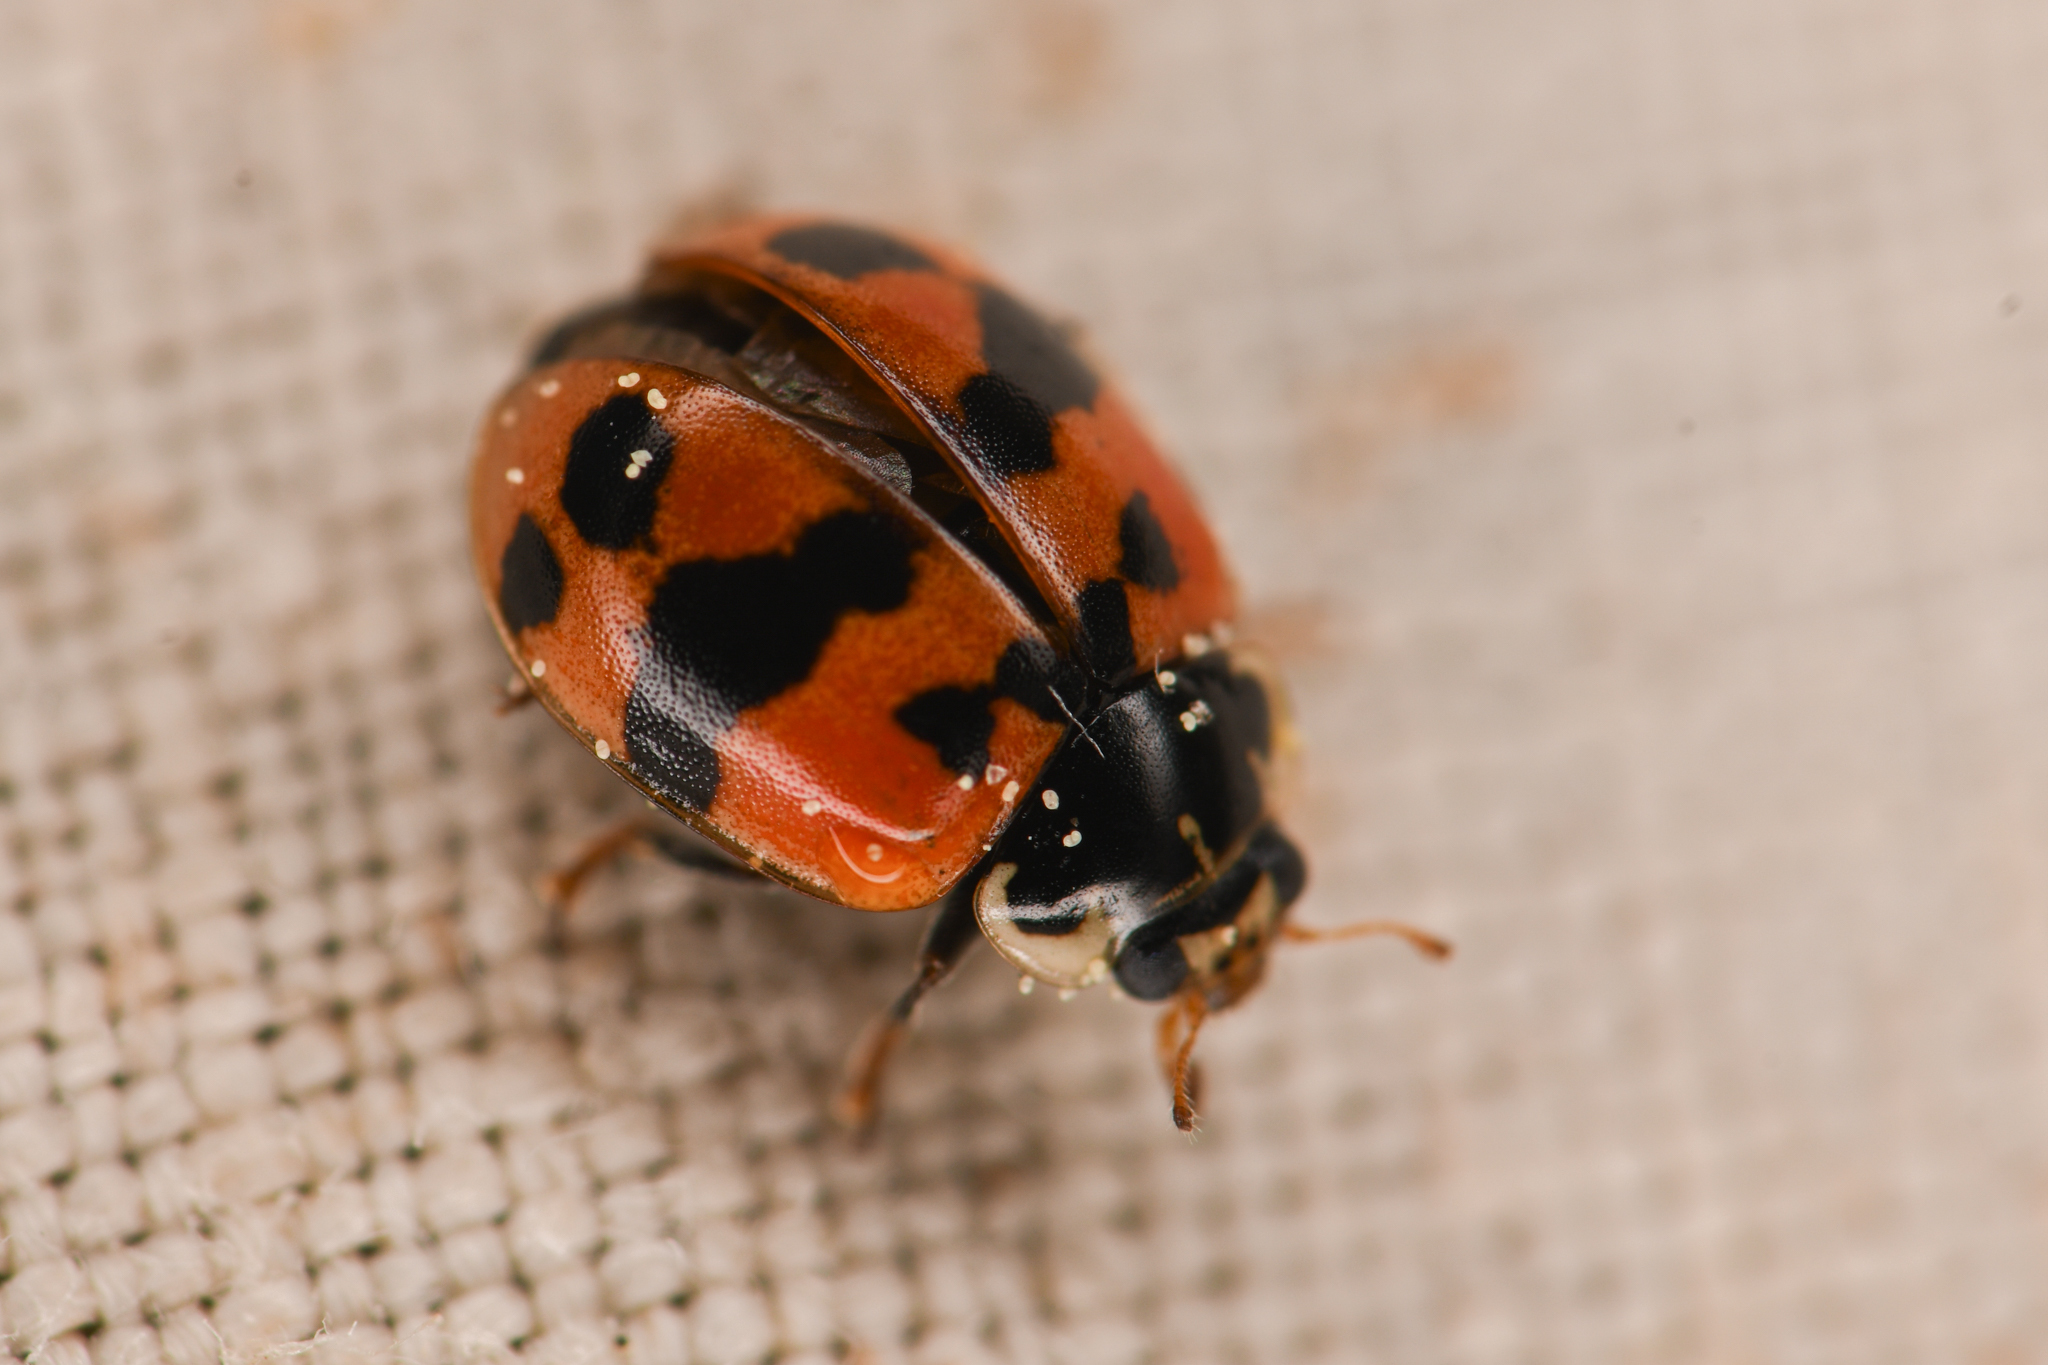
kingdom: Animalia
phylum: Arthropoda
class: Insecta
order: Coleoptera
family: Coccinellidae
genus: Adalia
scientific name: Adalia bipunctata
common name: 2-spot ladybird
